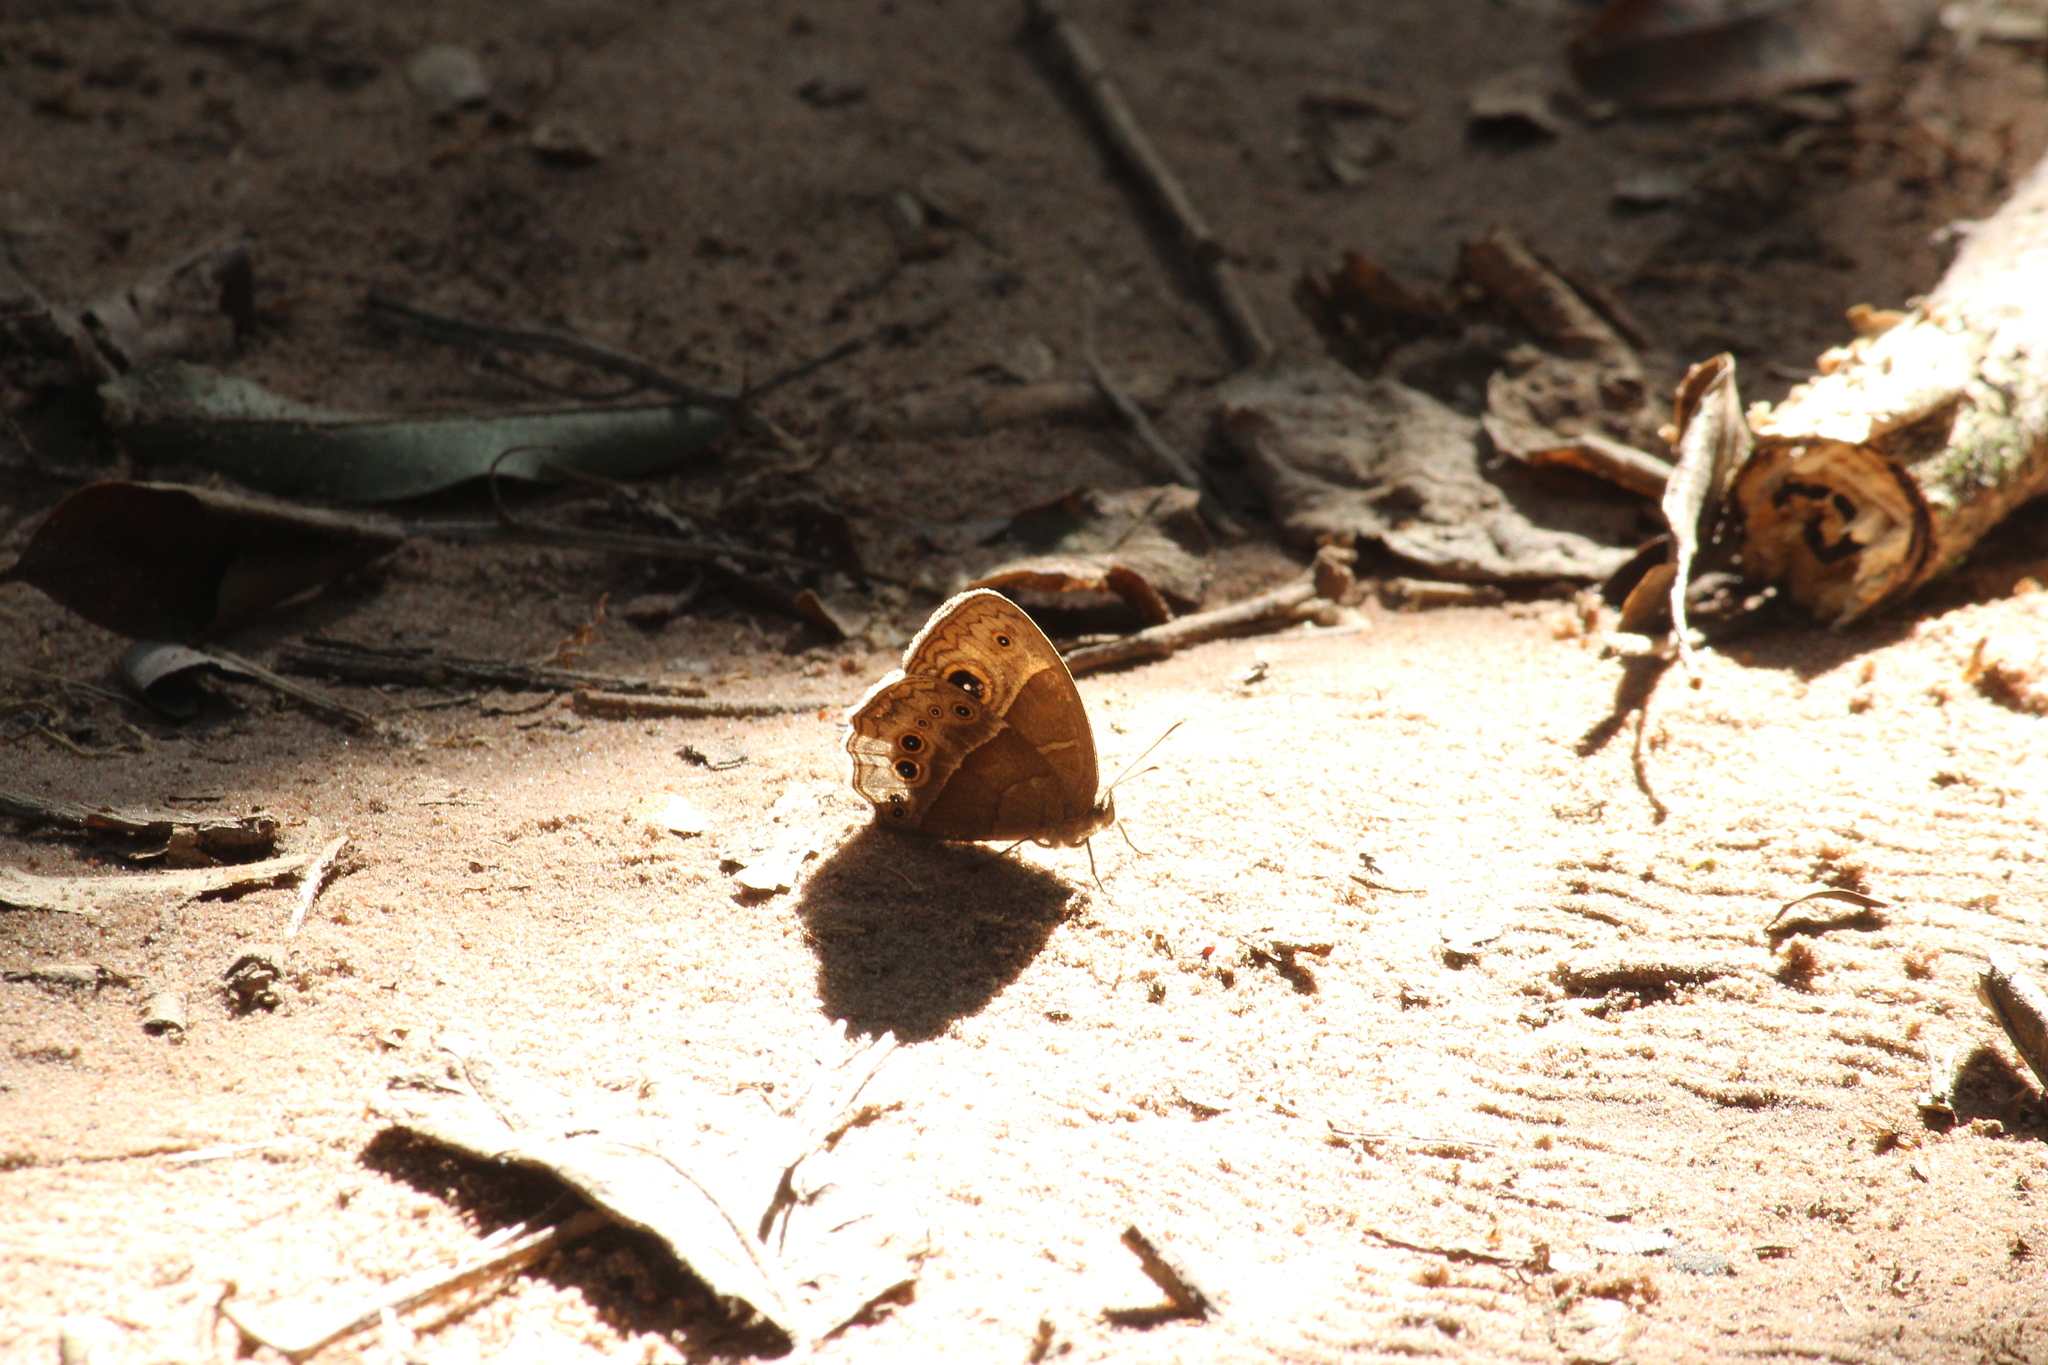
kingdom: Animalia
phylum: Arthropoda
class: Insecta
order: Lepidoptera
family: Nymphalidae
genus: Mycalesis
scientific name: Mycalesis rhacotis
